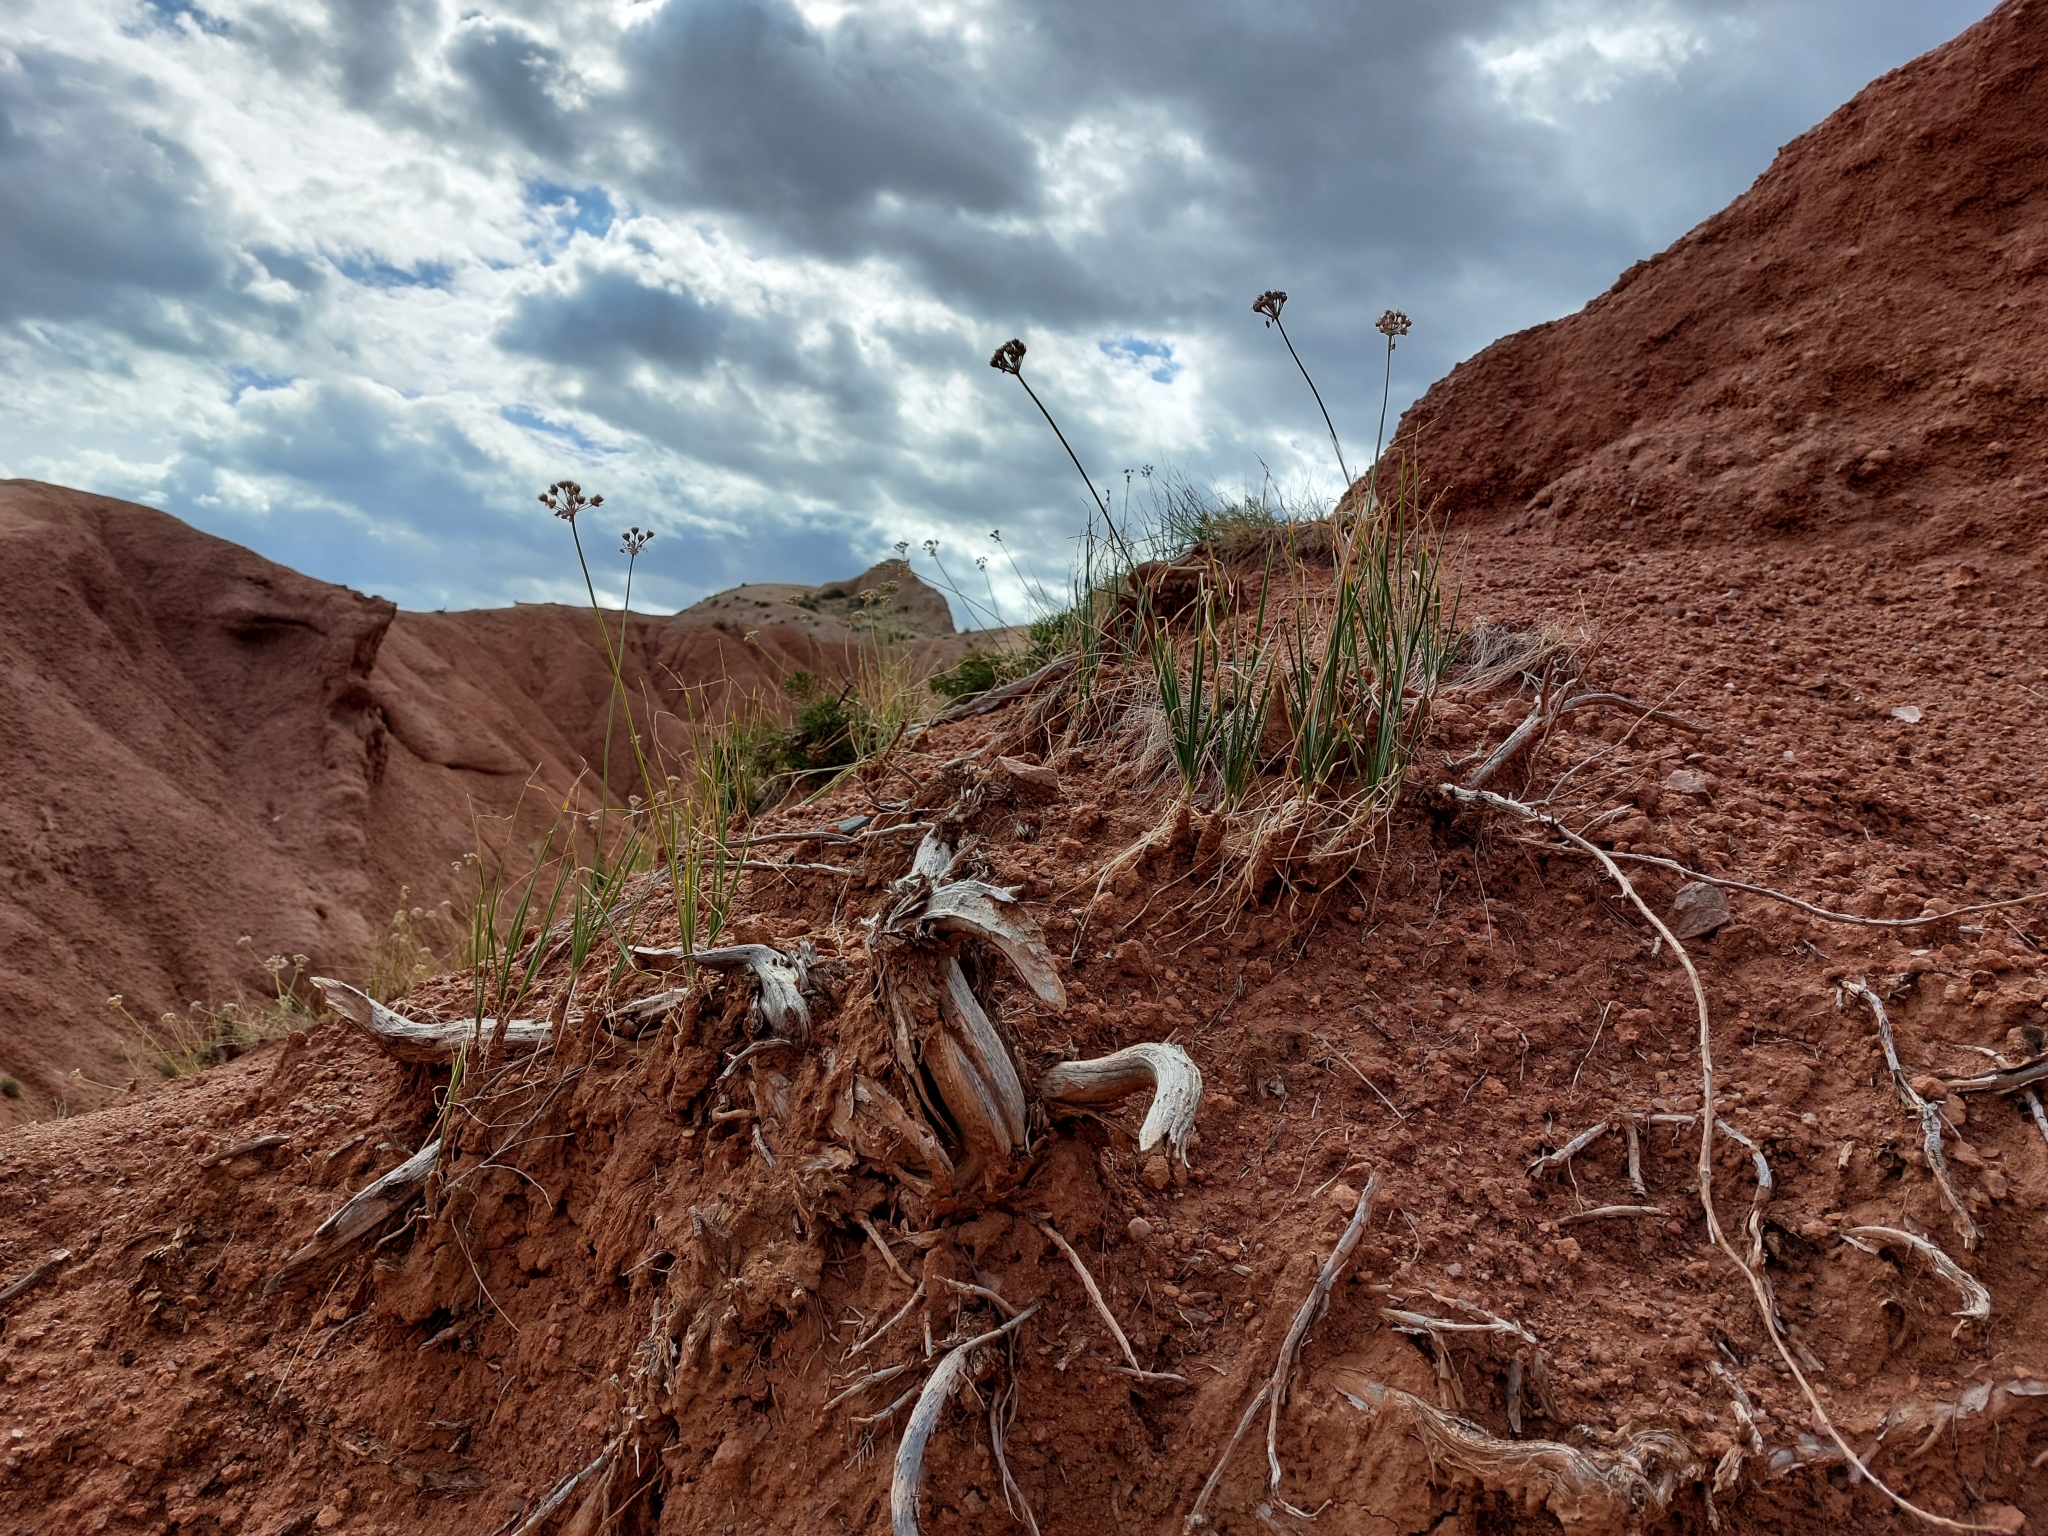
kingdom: Plantae
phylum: Tracheophyta
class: Liliopsida
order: Asparagales
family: Amaryllidaceae
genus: Allium
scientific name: Allium oreoprasum
